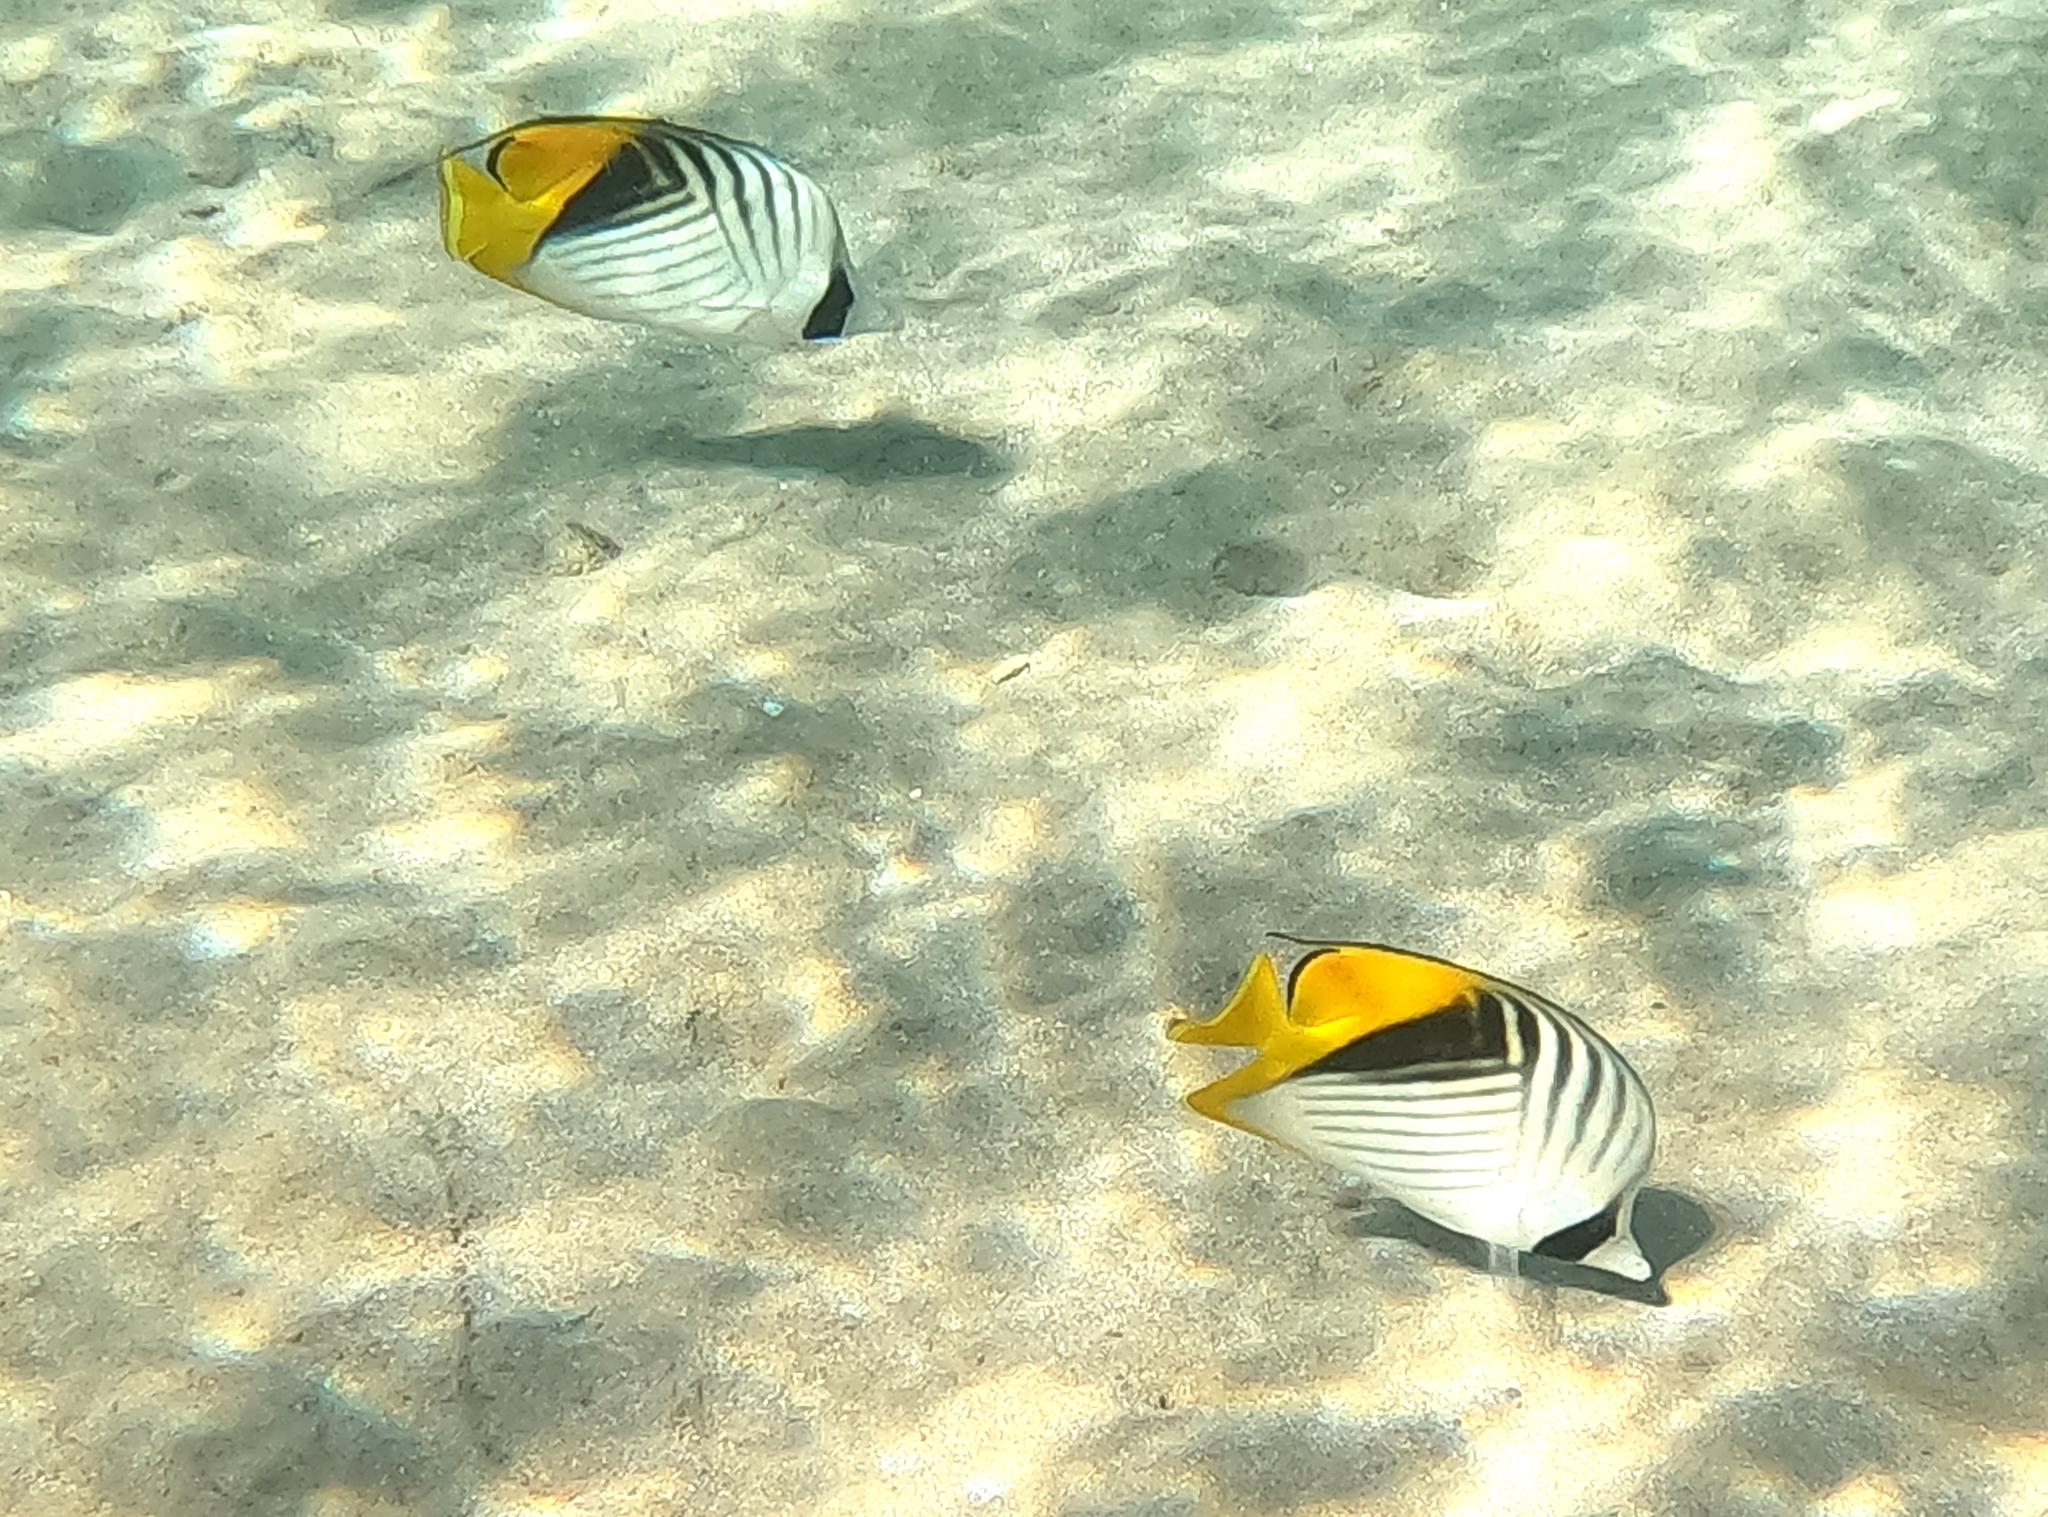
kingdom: Animalia
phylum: Chordata
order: Perciformes
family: Chaetodontidae
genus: Chaetodon
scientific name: Chaetodon auriga
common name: Threadfin butterflyfish
